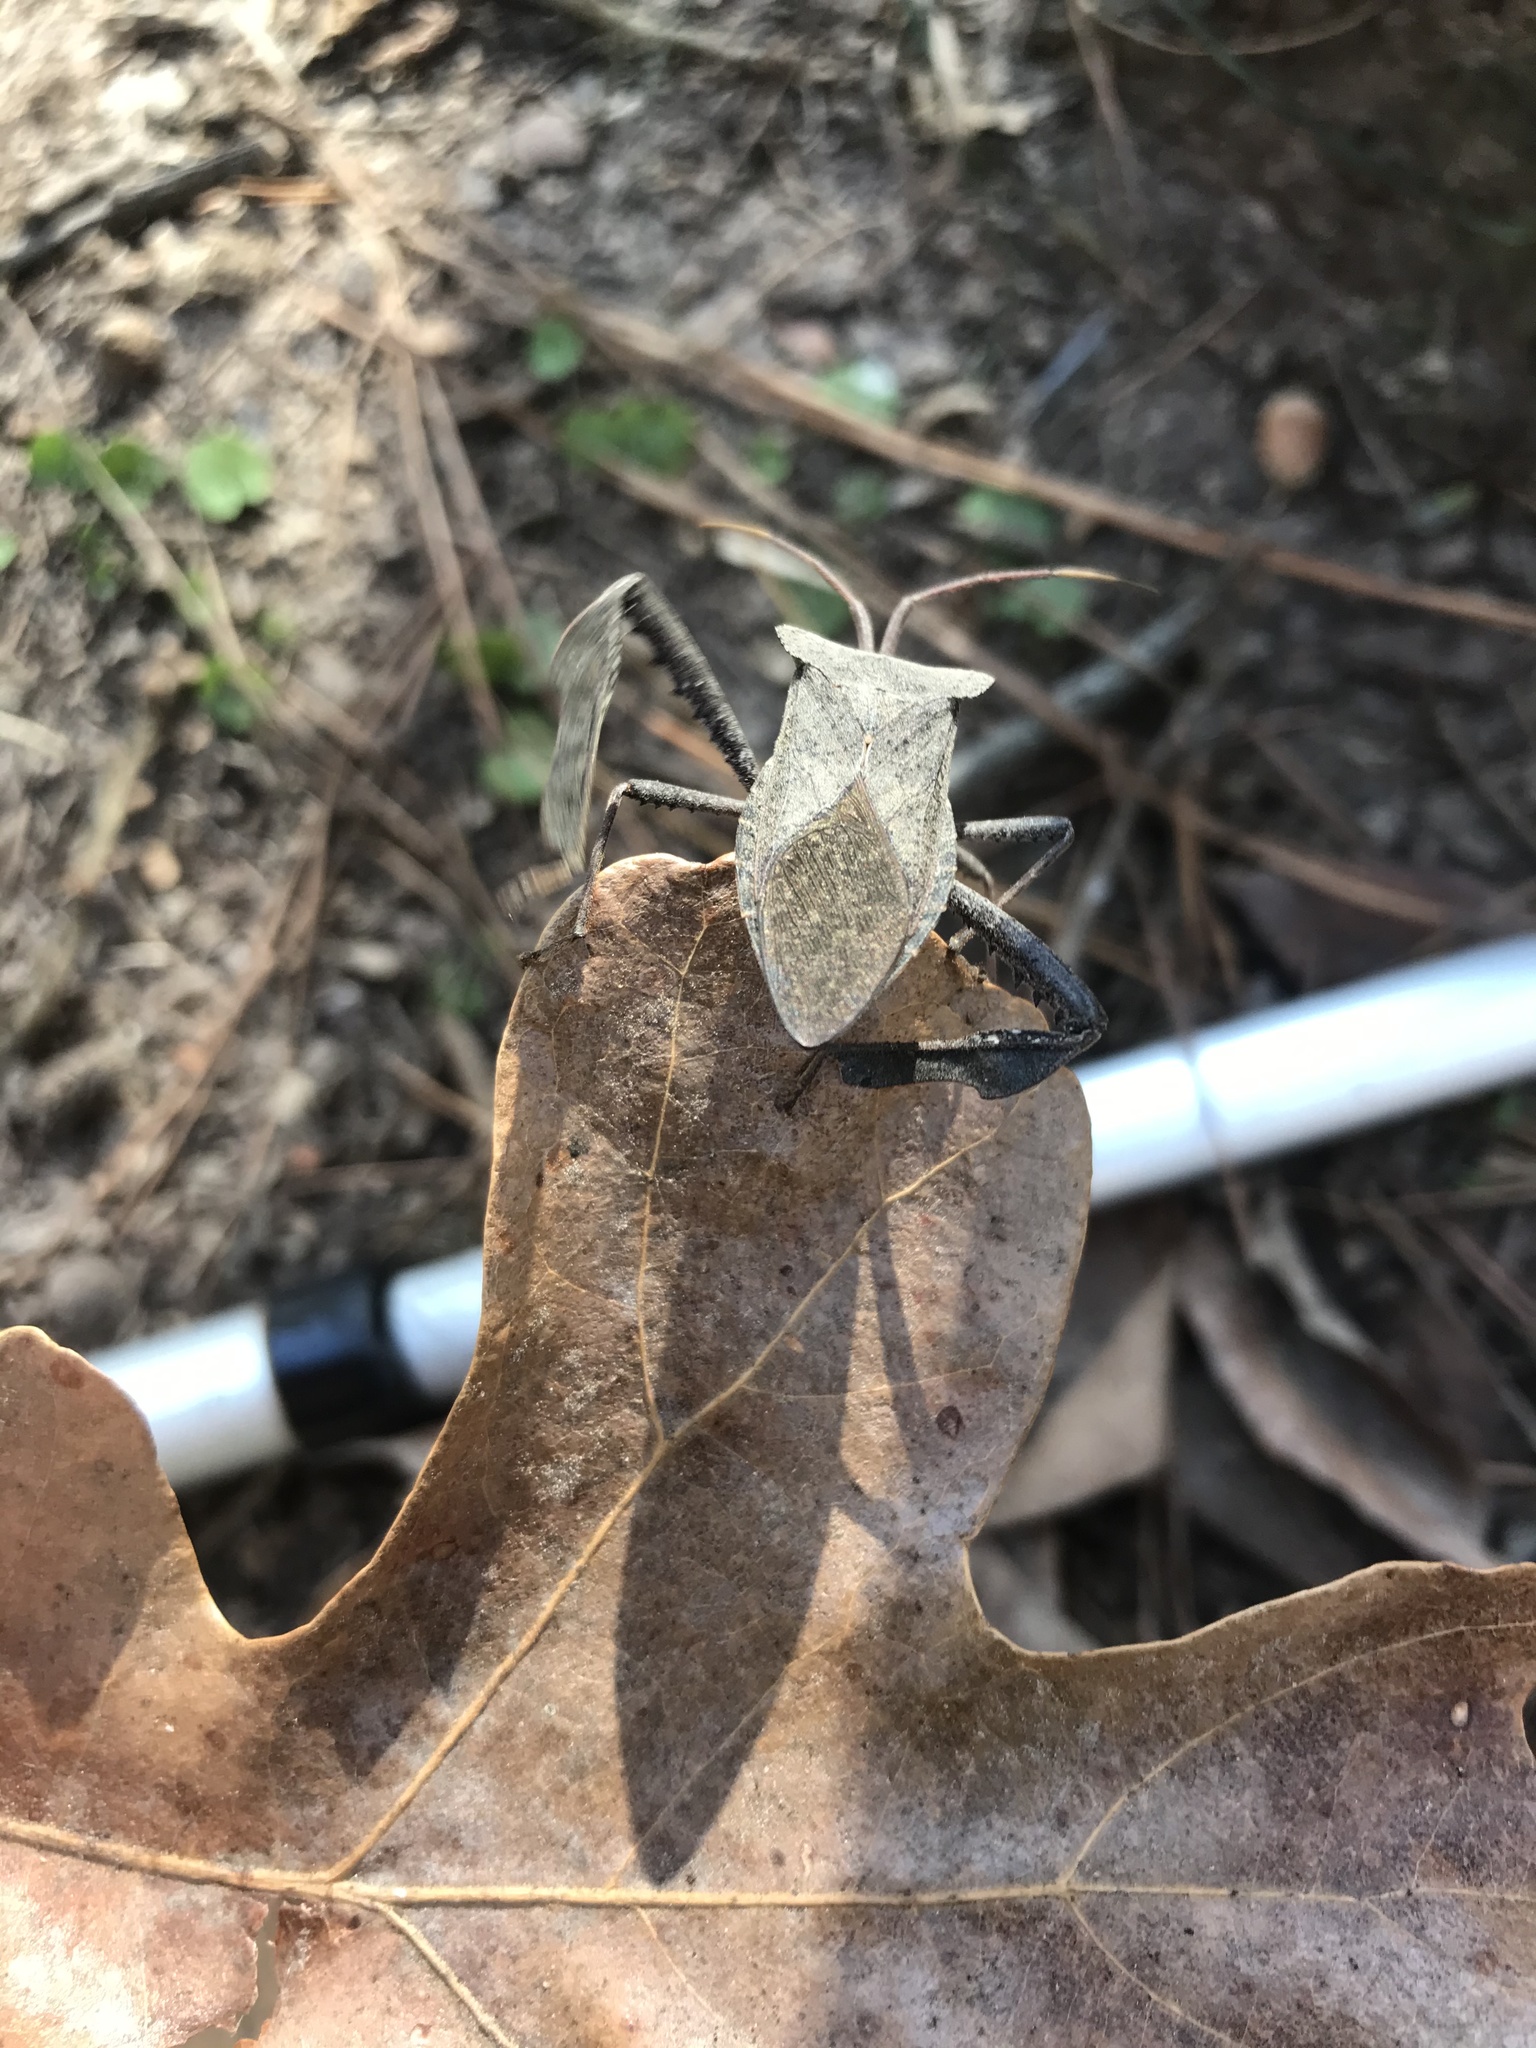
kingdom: Animalia
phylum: Arthropoda
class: Insecta
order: Hemiptera
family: Coreidae
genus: Acanthocephala
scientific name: Acanthocephala declivis
